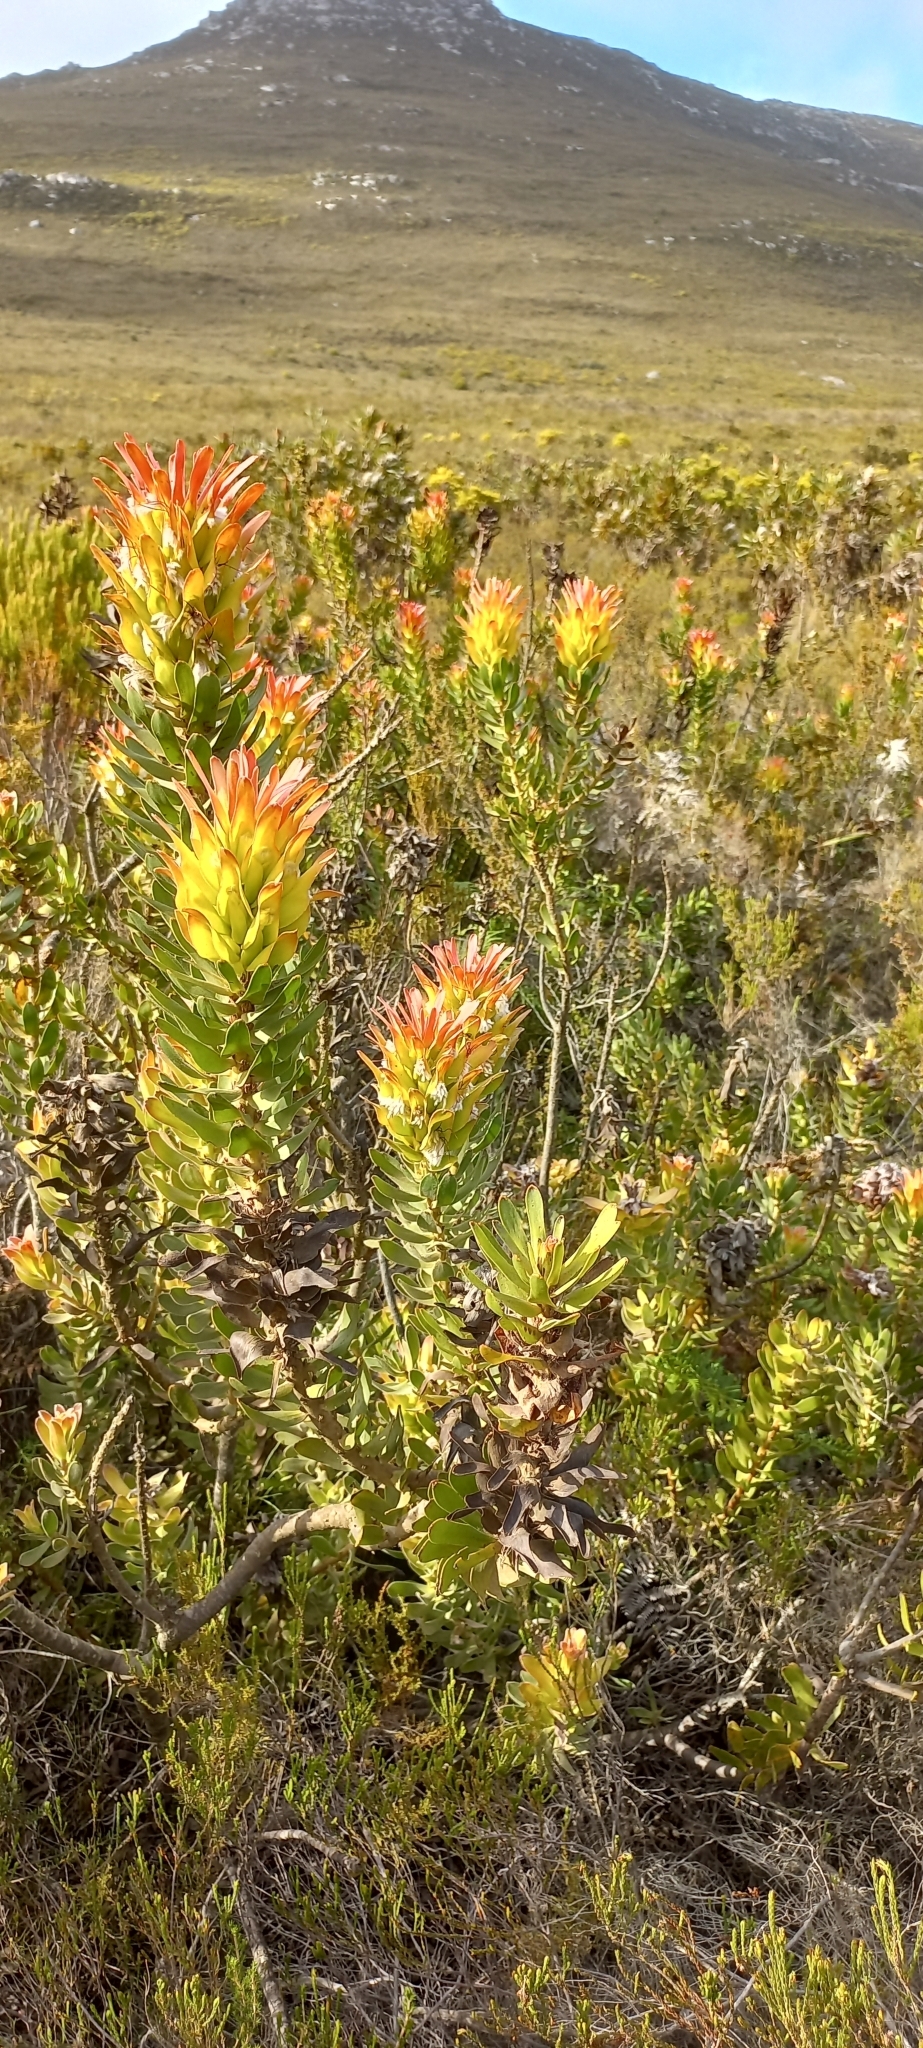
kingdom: Plantae
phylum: Tracheophyta
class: Magnoliopsida
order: Proteales
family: Proteaceae
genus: Mimetes
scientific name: Mimetes cucullatus
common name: Common pagoda
